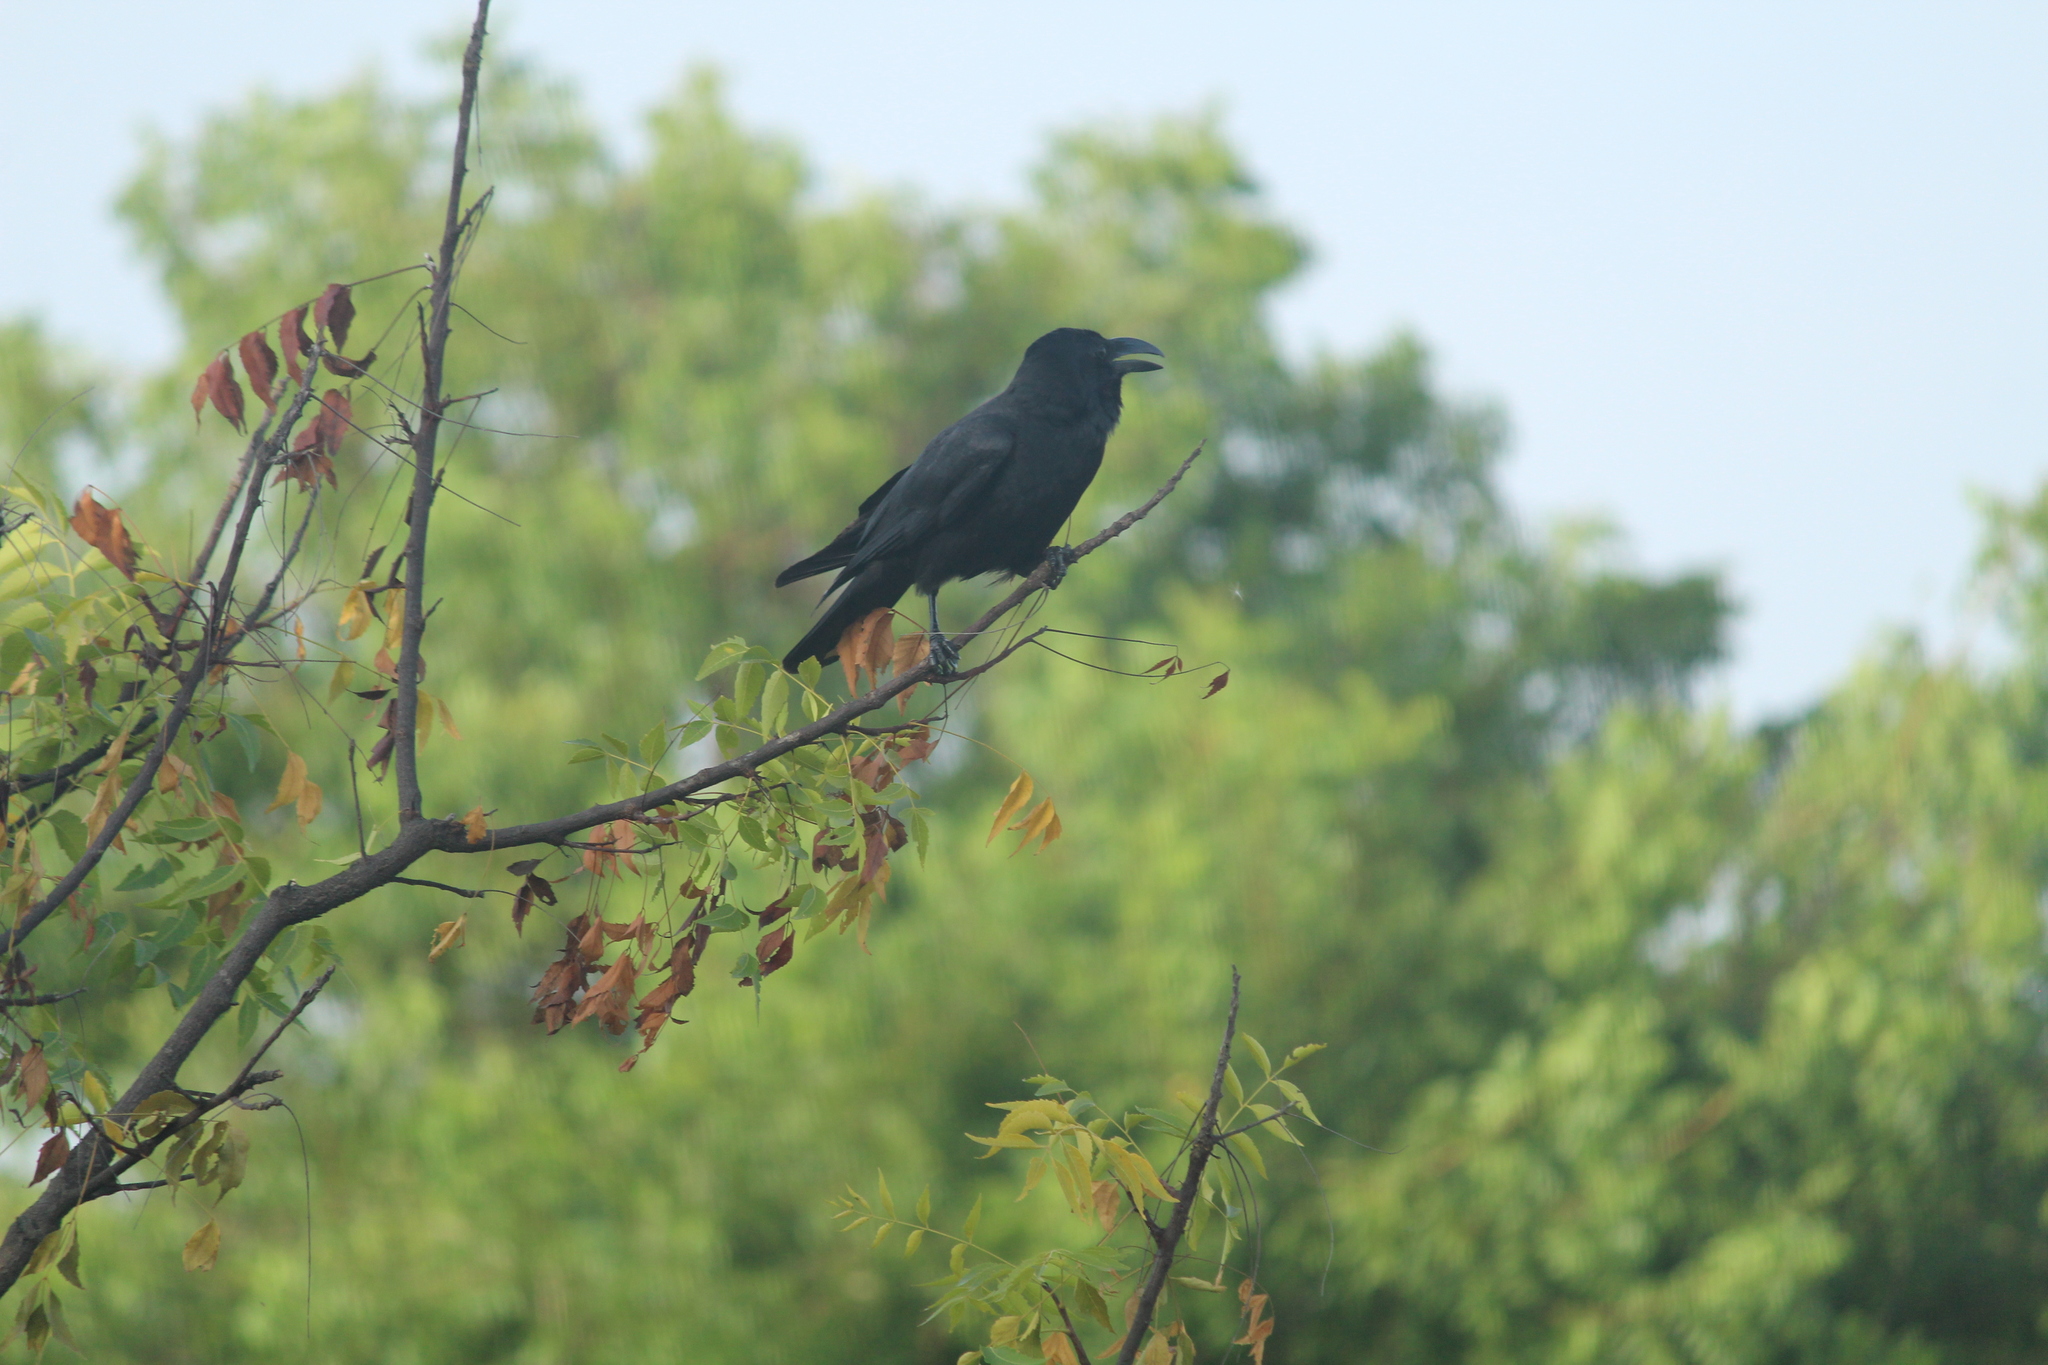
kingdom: Animalia
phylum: Chordata
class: Aves
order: Passeriformes
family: Corvidae
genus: Corvus
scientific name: Corvus macrorhynchos
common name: Large-billed crow
